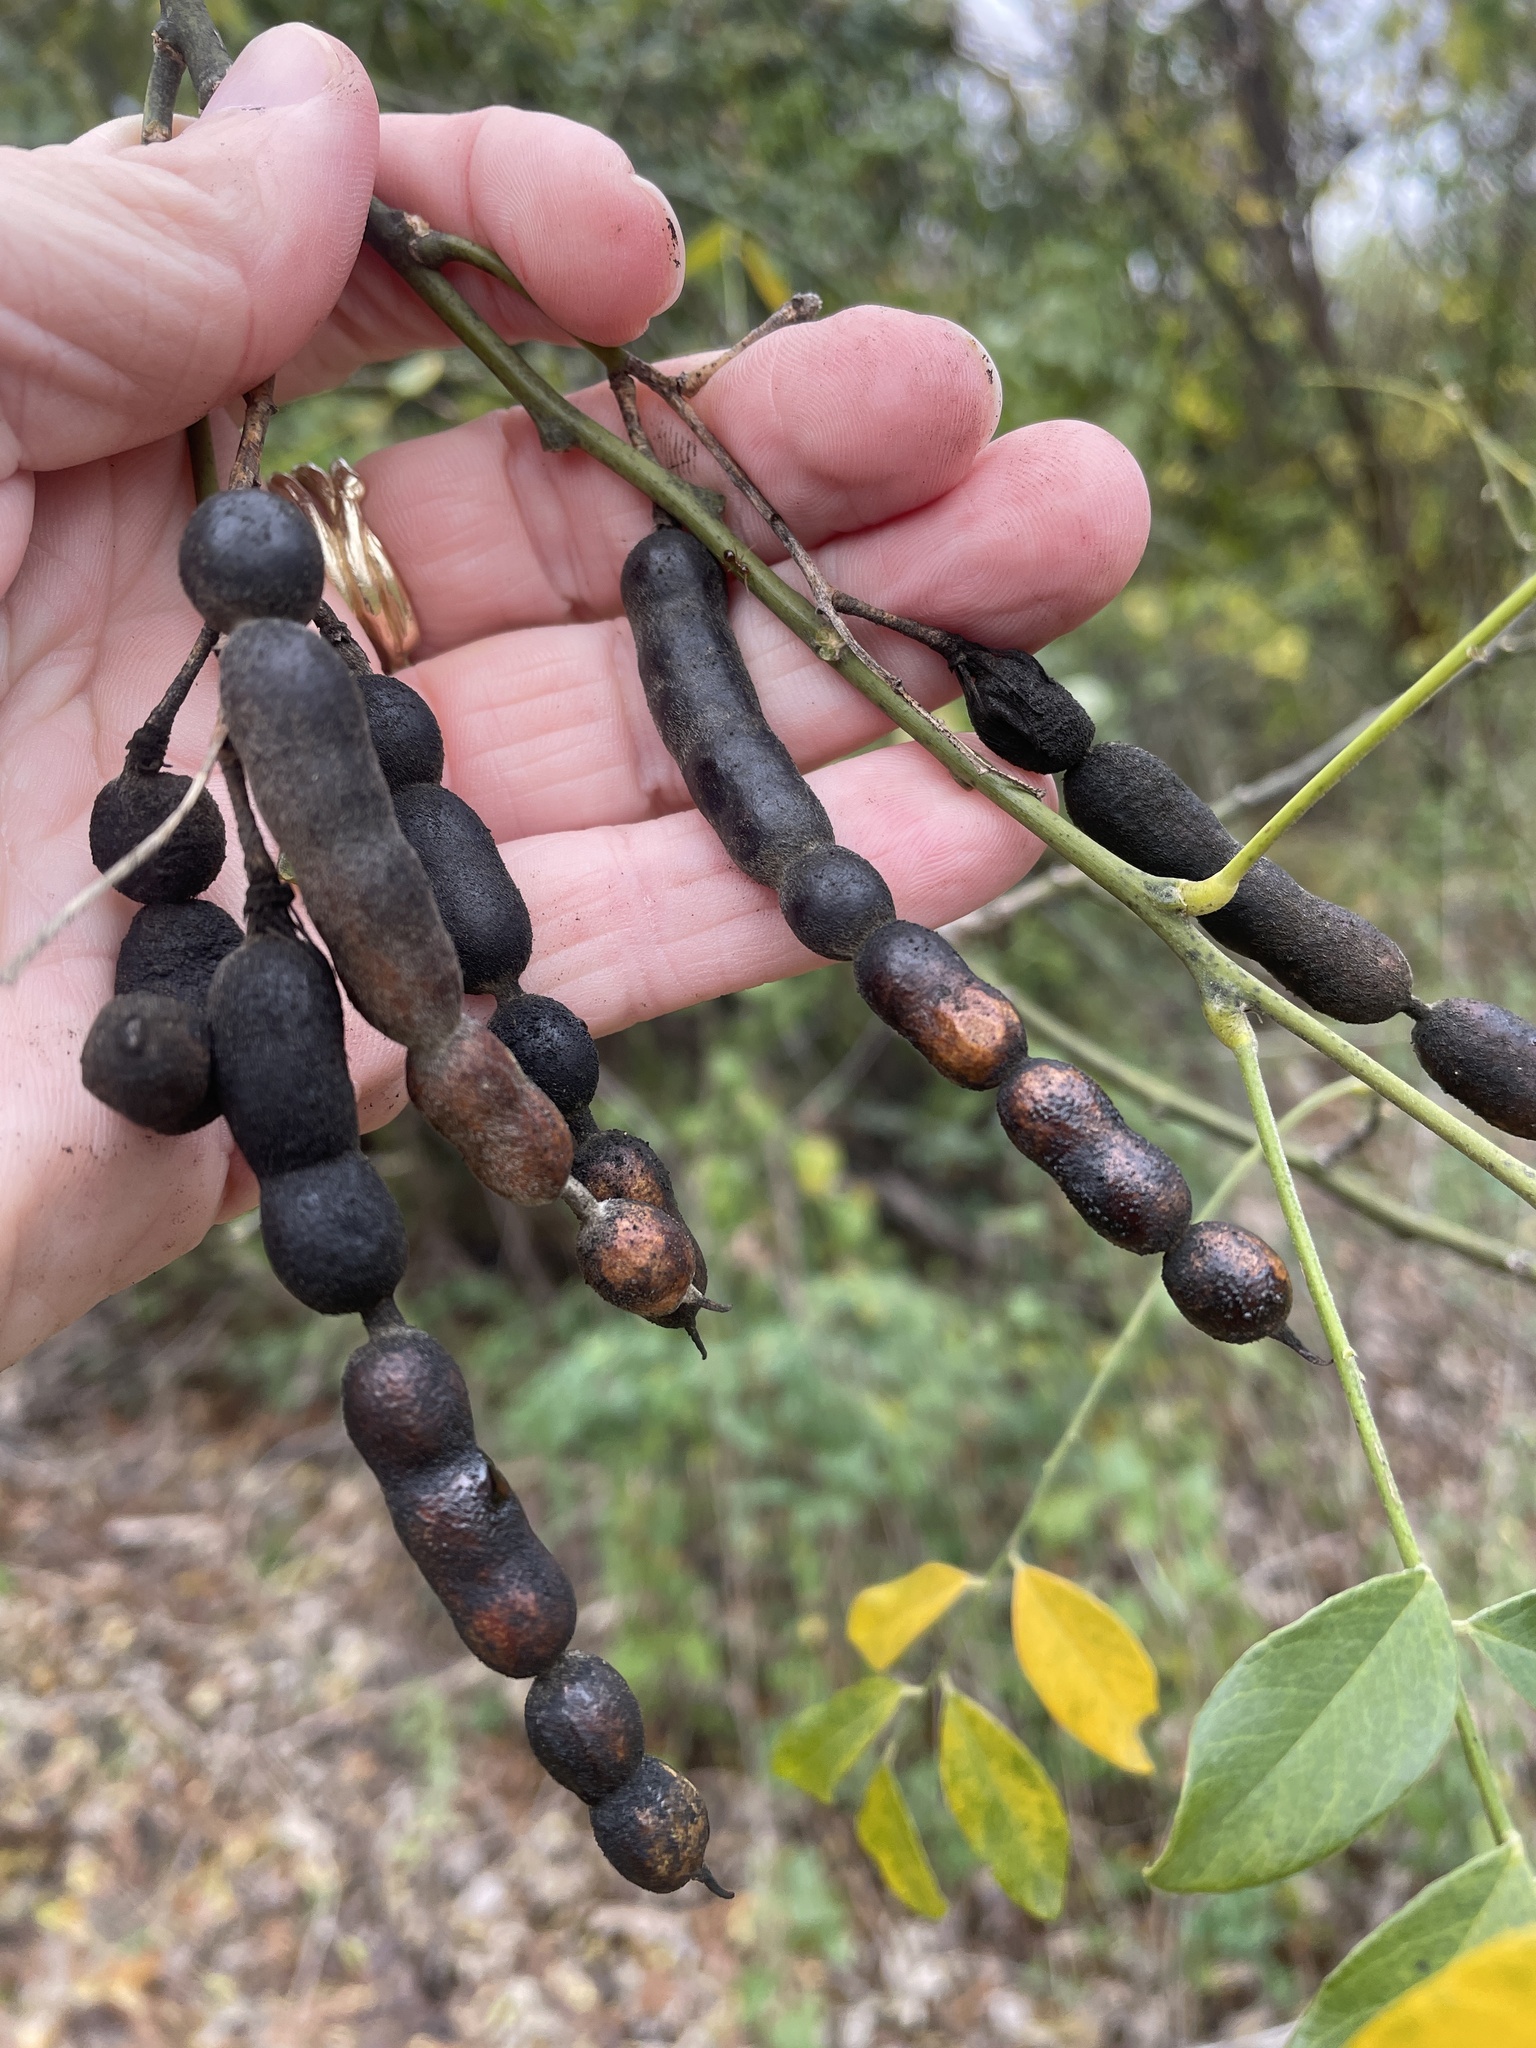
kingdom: Plantae
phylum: Tracheophyta
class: Magnoliopsida
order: Fabales
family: Fabaceae
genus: Styphnolobium
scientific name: Styphnolobium affine
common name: Texas sophora
